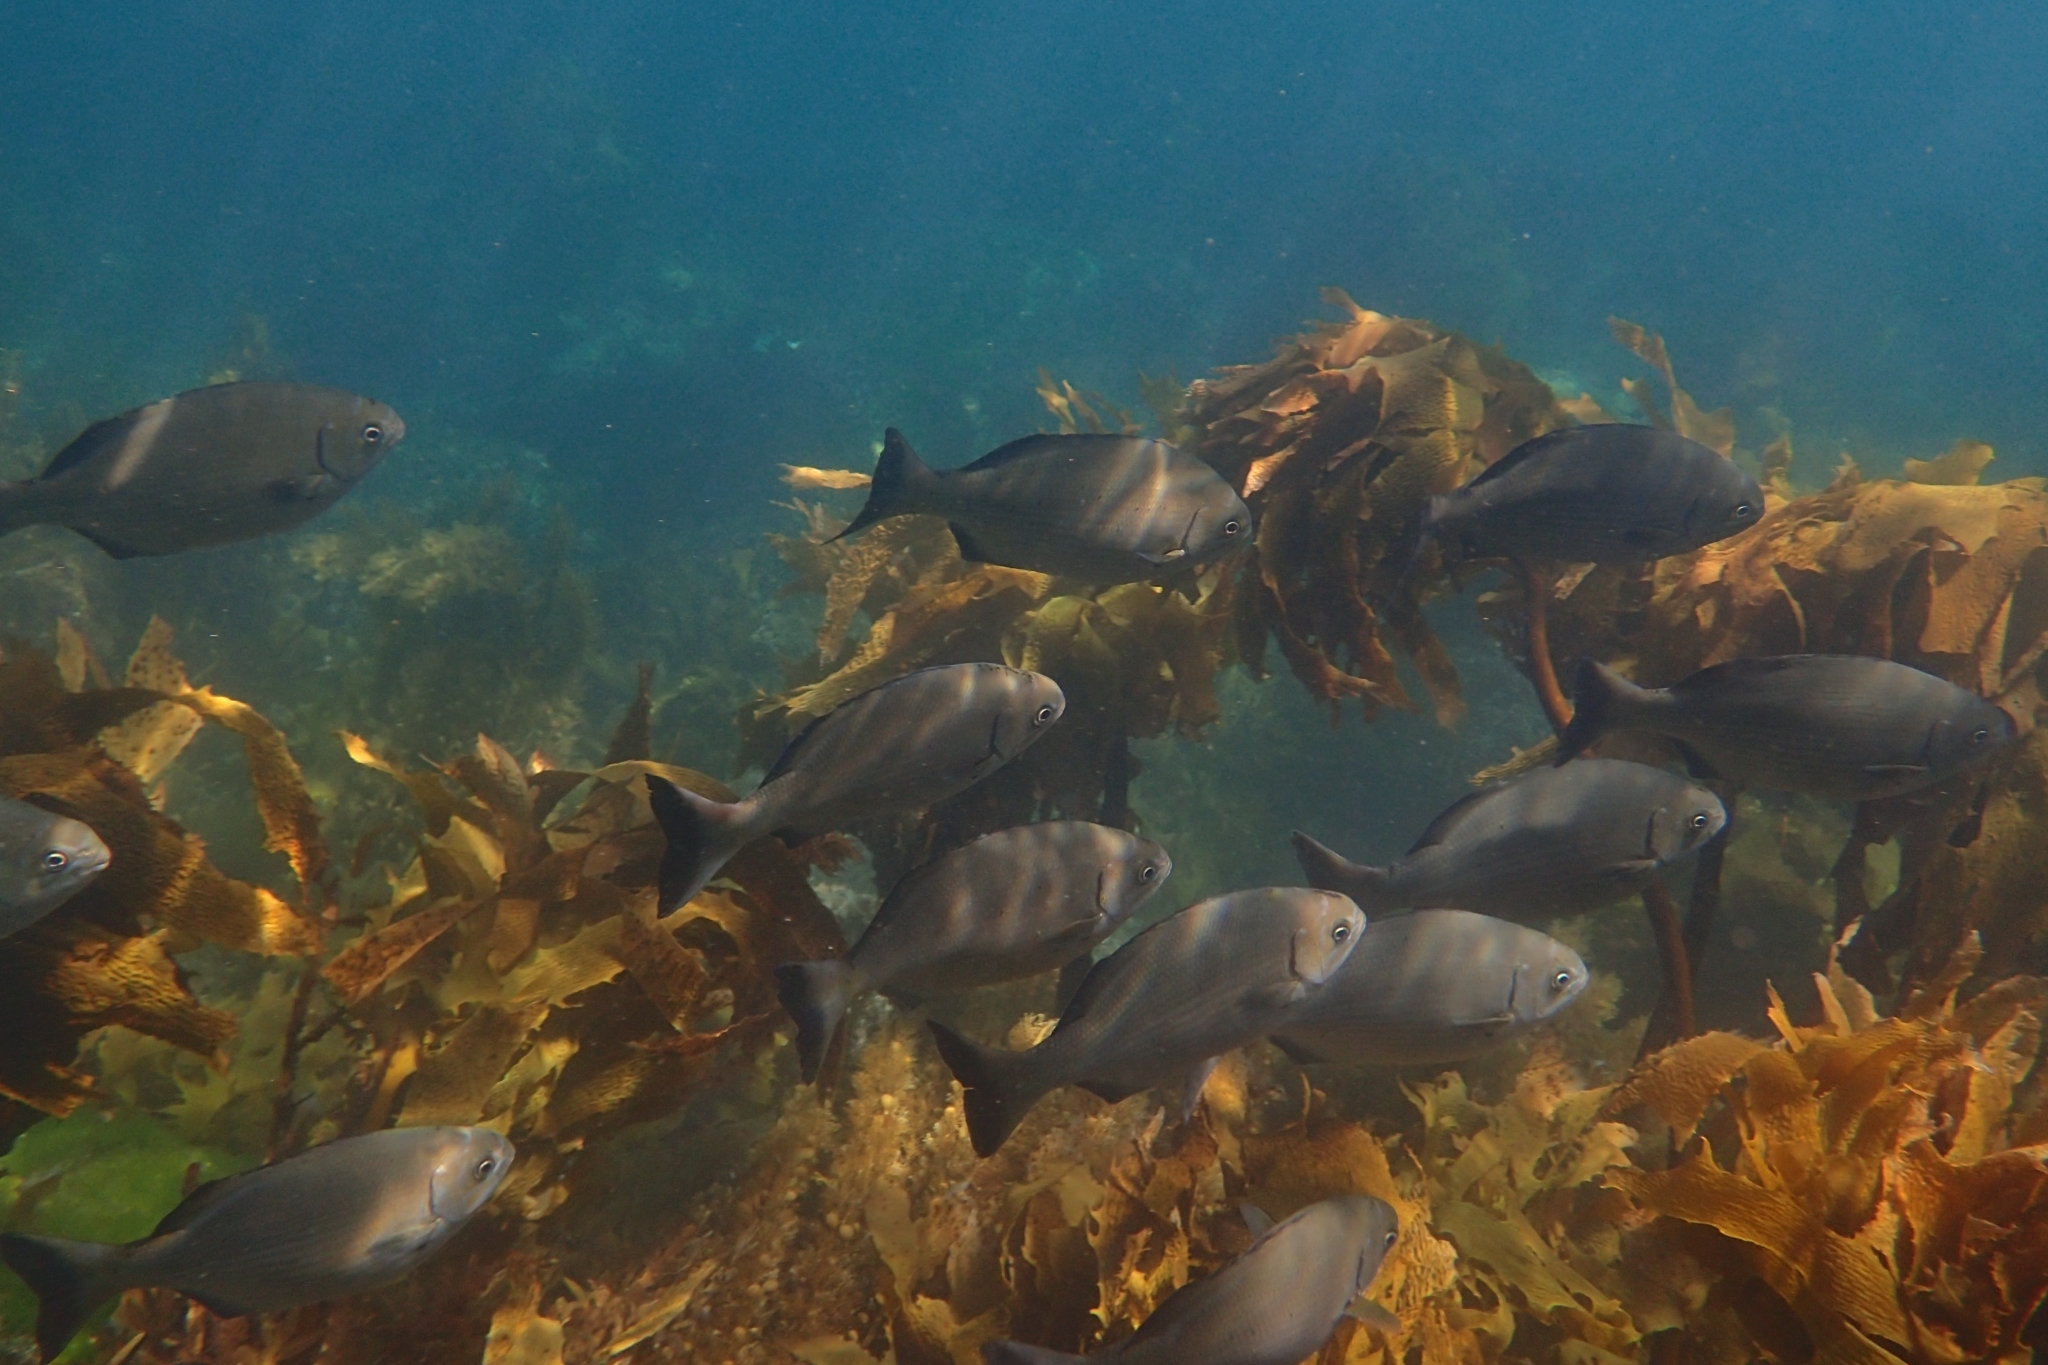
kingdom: Animalia
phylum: Chordata
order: Perciformes
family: Kyphosidae
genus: Kyphosus
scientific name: Kyphosus sydneyanus
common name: Silver drummer
